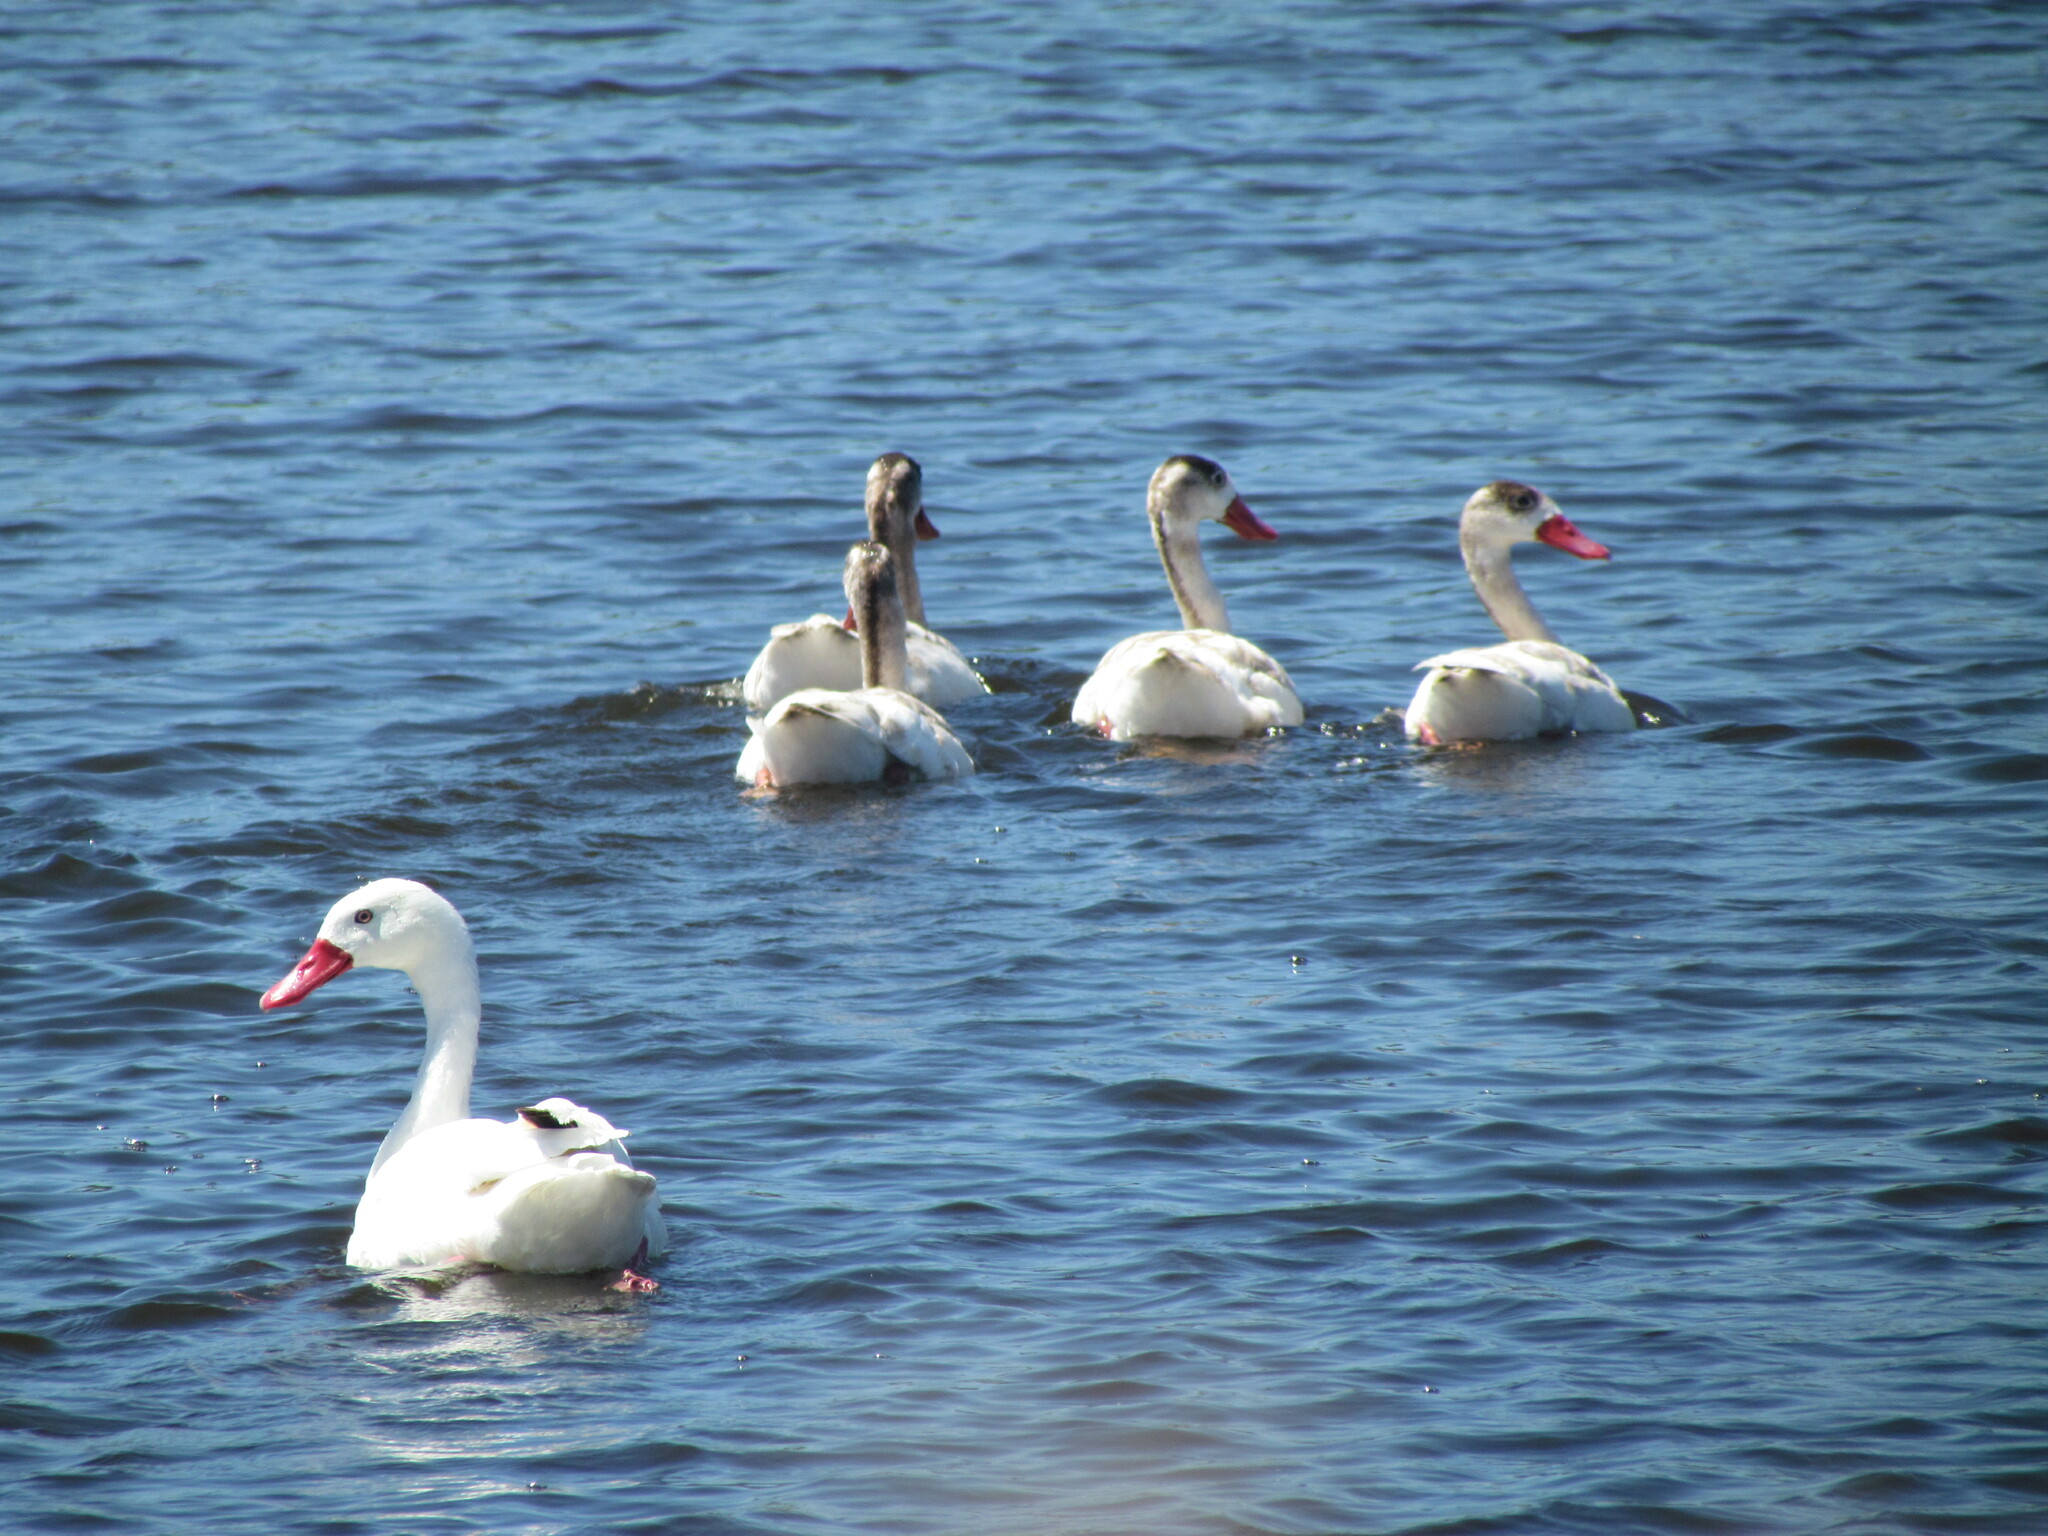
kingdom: Animalia
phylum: Chordata
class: Aves
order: Anseriformes
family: Anatidae
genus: Coscoroba
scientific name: Coscoroba coscoroba
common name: Coscoroba swan
